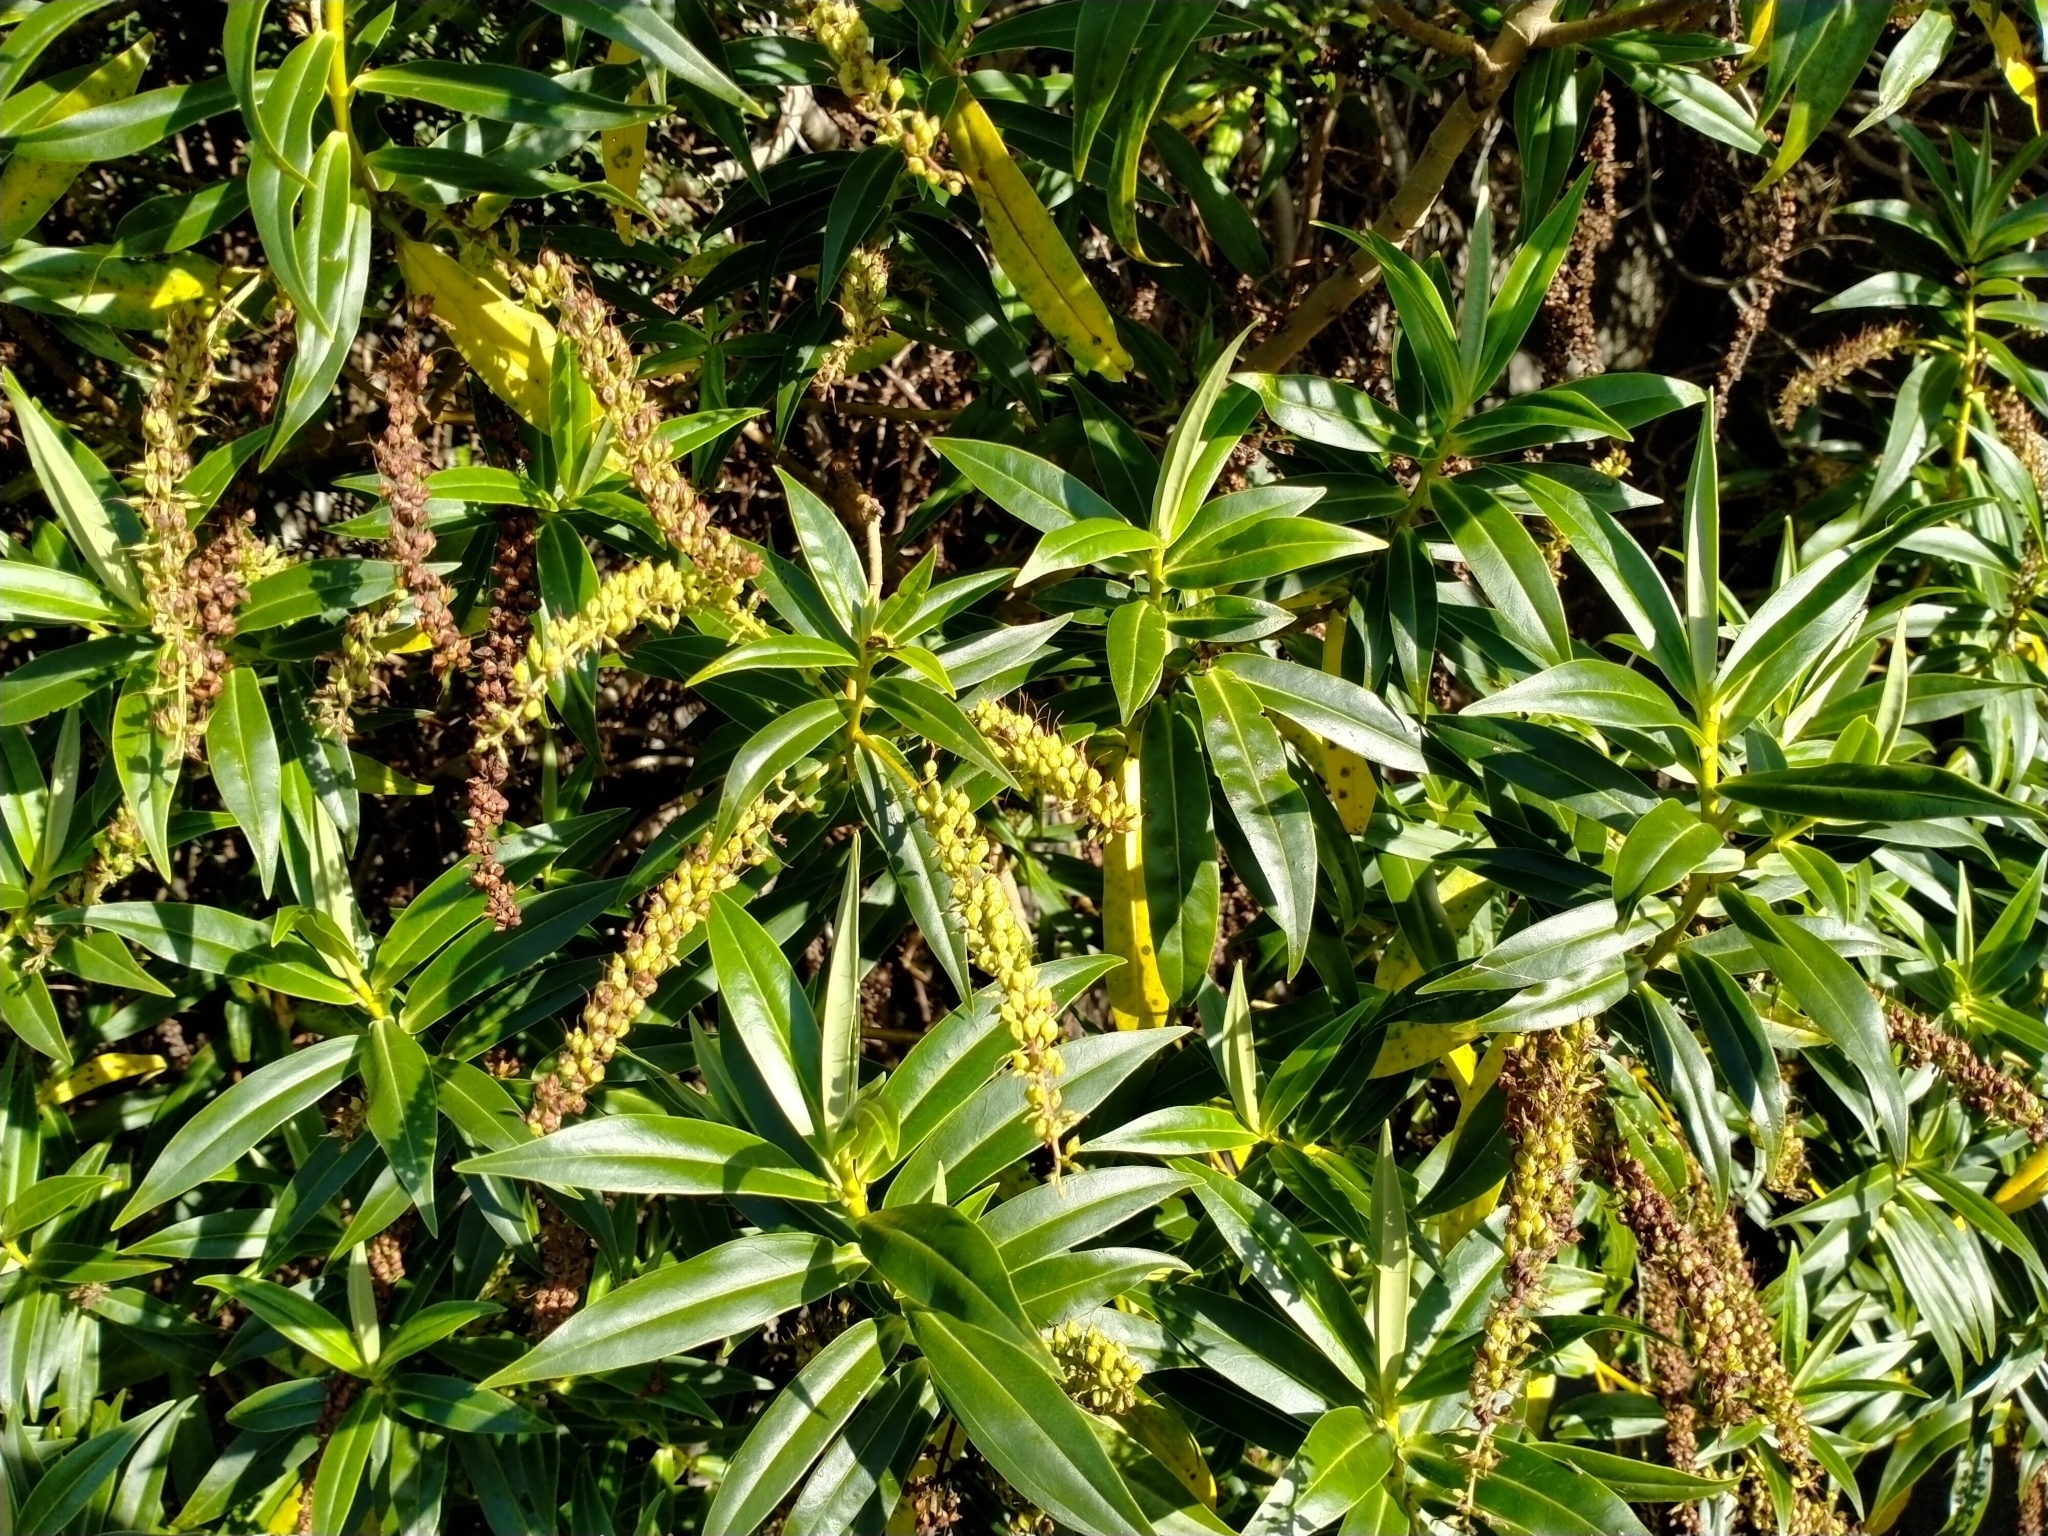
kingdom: Plantae
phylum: Tracheophyta
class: Magnoliopsida
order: Lamiales
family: Plantaginaceae
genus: Veronica
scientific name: Veronica salicifolia
